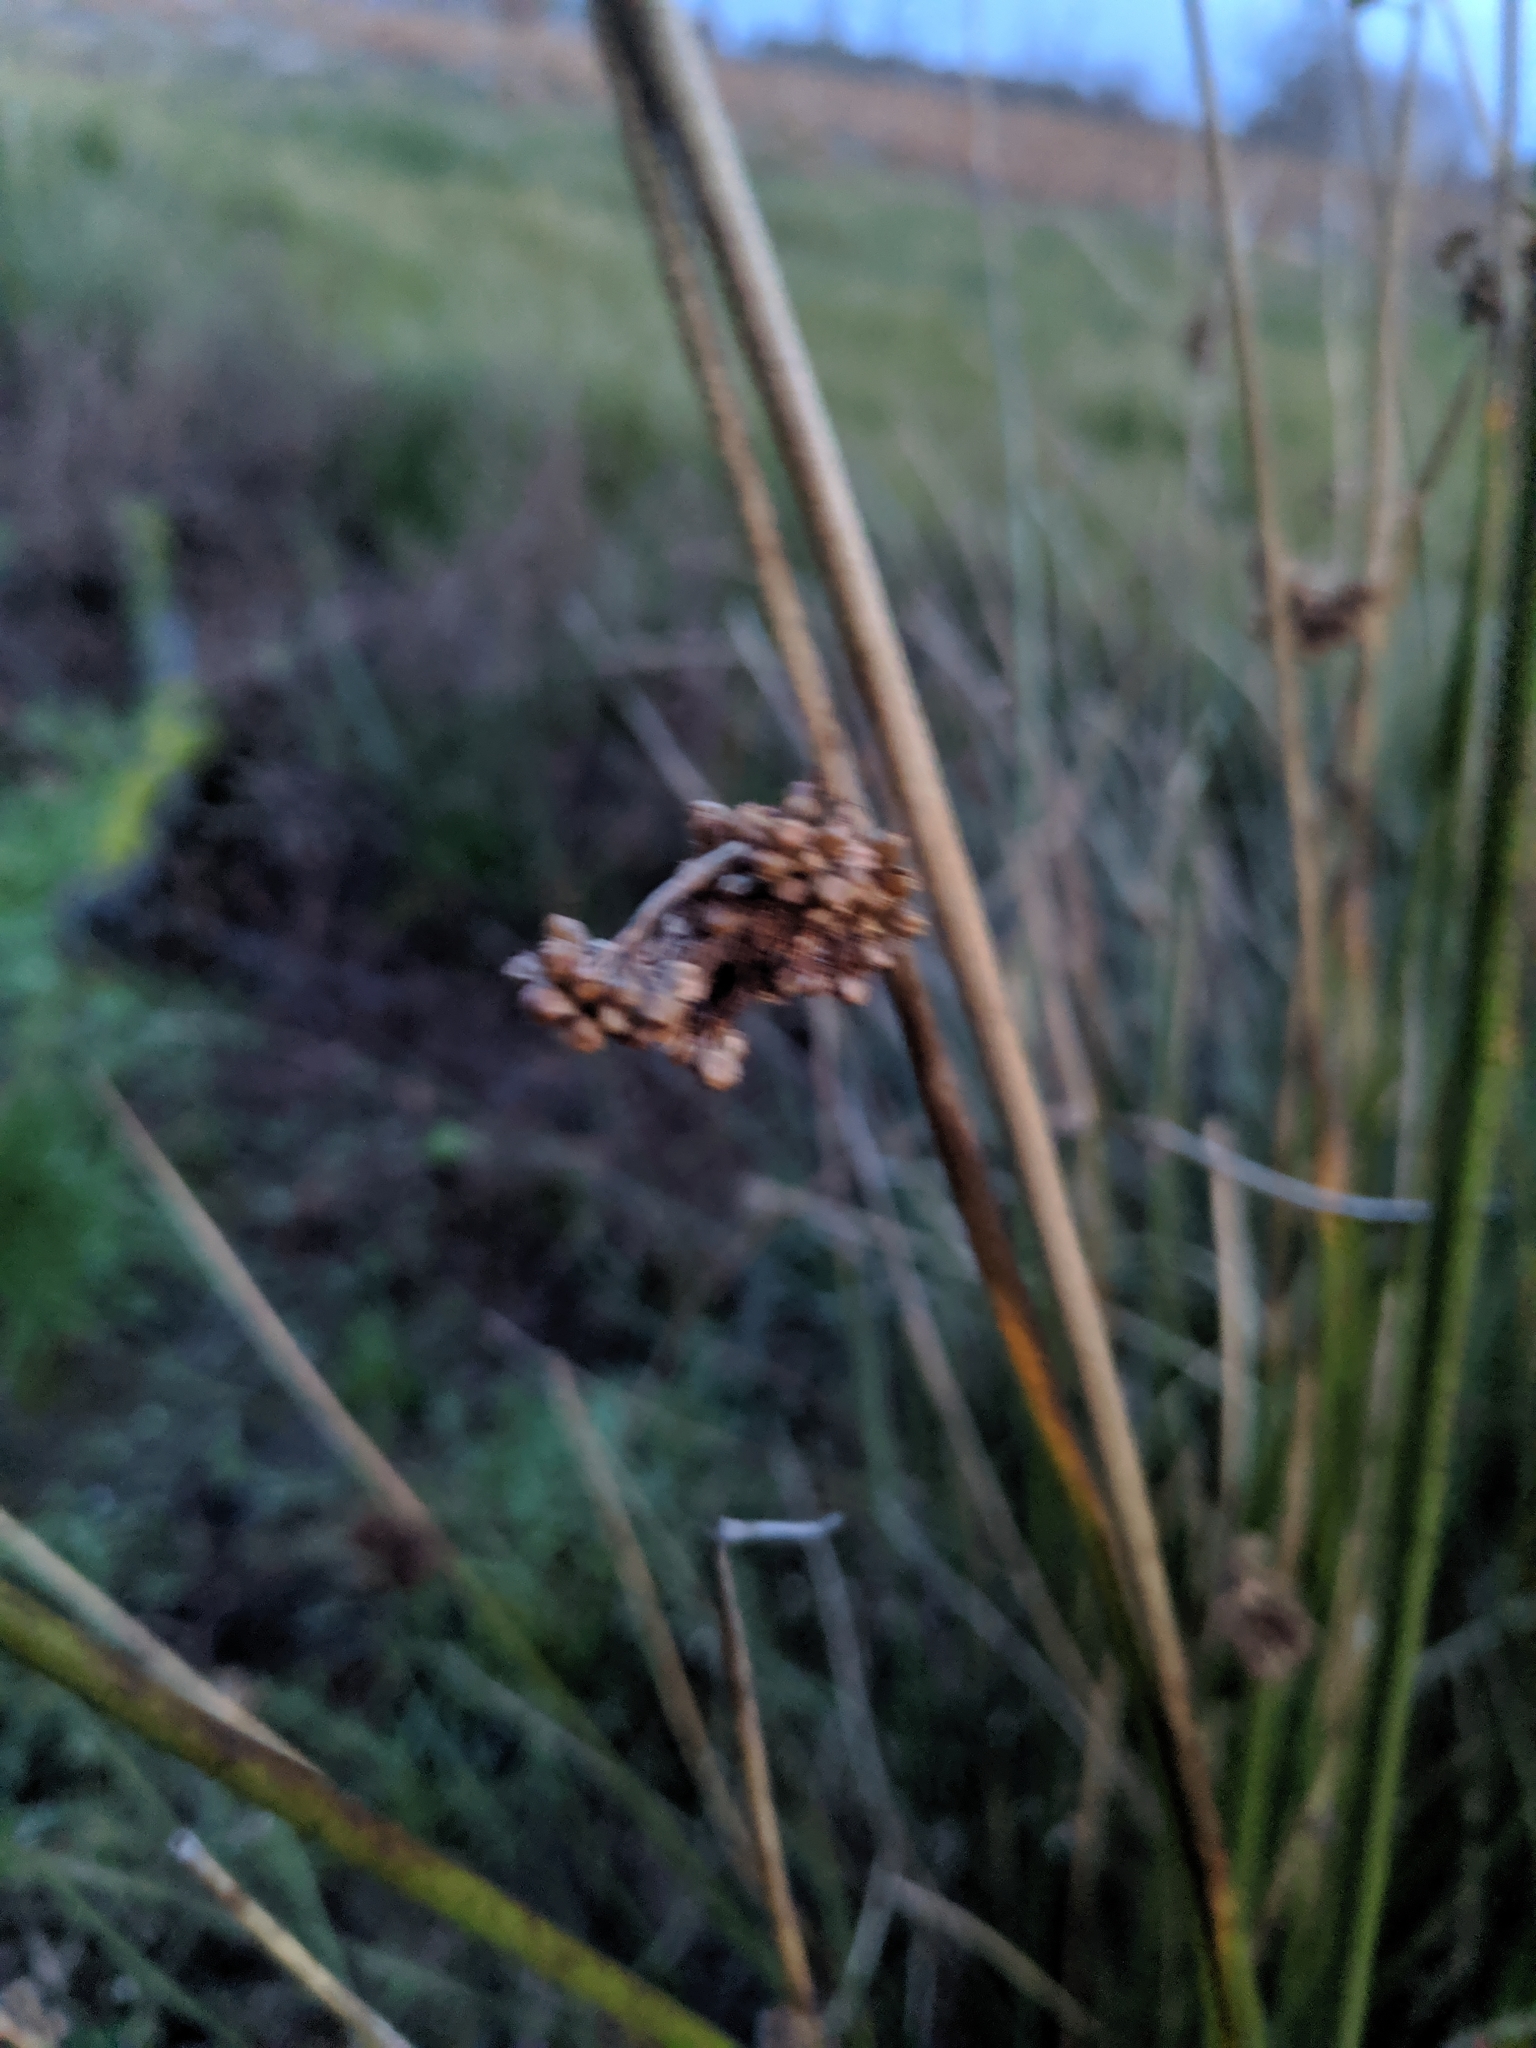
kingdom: Plantae
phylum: Tracheophyta
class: Liliopsida
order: Poales
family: Juncaceae
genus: Juncus
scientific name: Juncus effusus
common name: Soft rush
